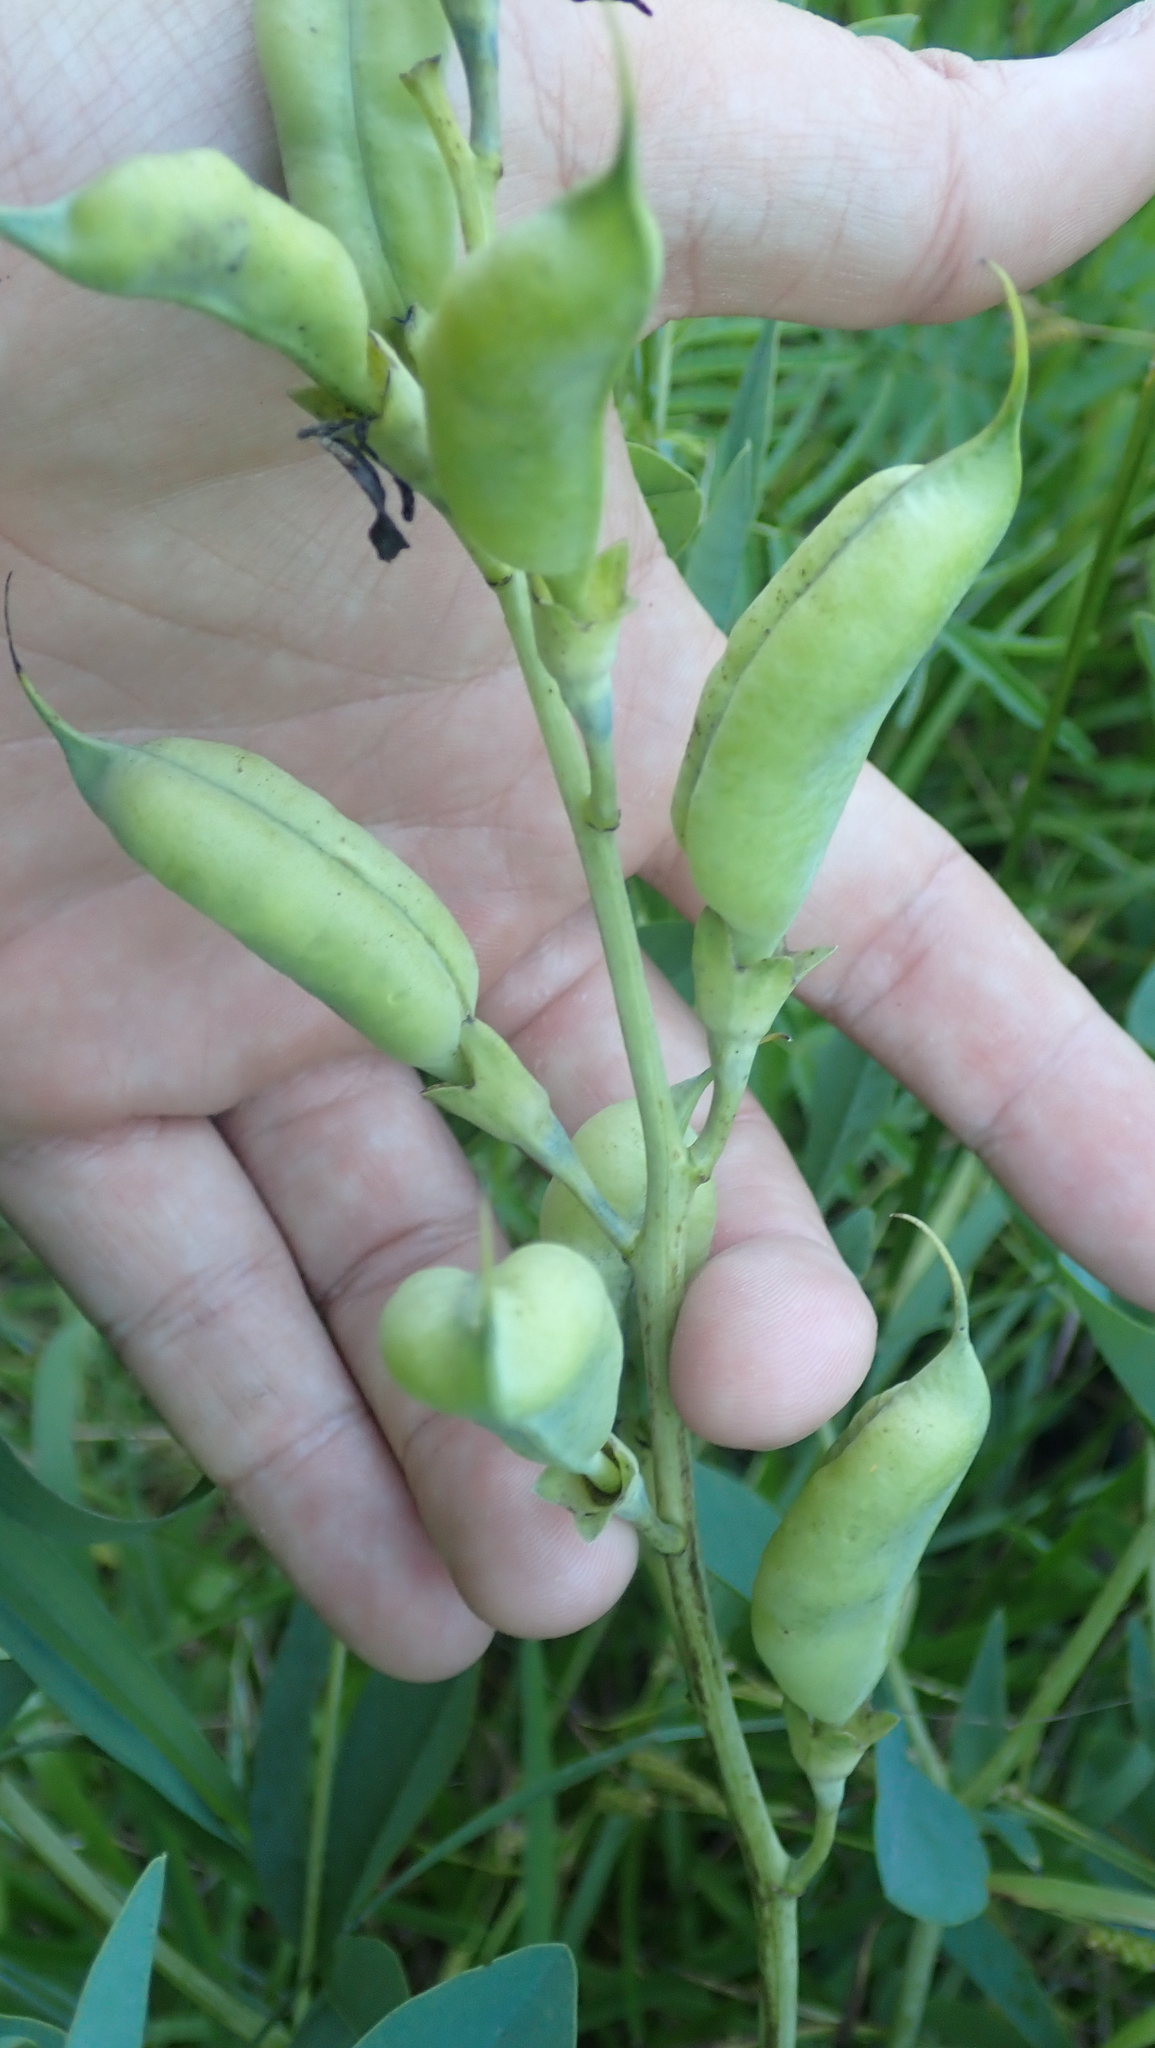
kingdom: Plantae
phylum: Tracheophyta
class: Magnoliopsida
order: Fabales
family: Fabaceae
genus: Baptisia
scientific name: Baptisia australis
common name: Blue false indigo
